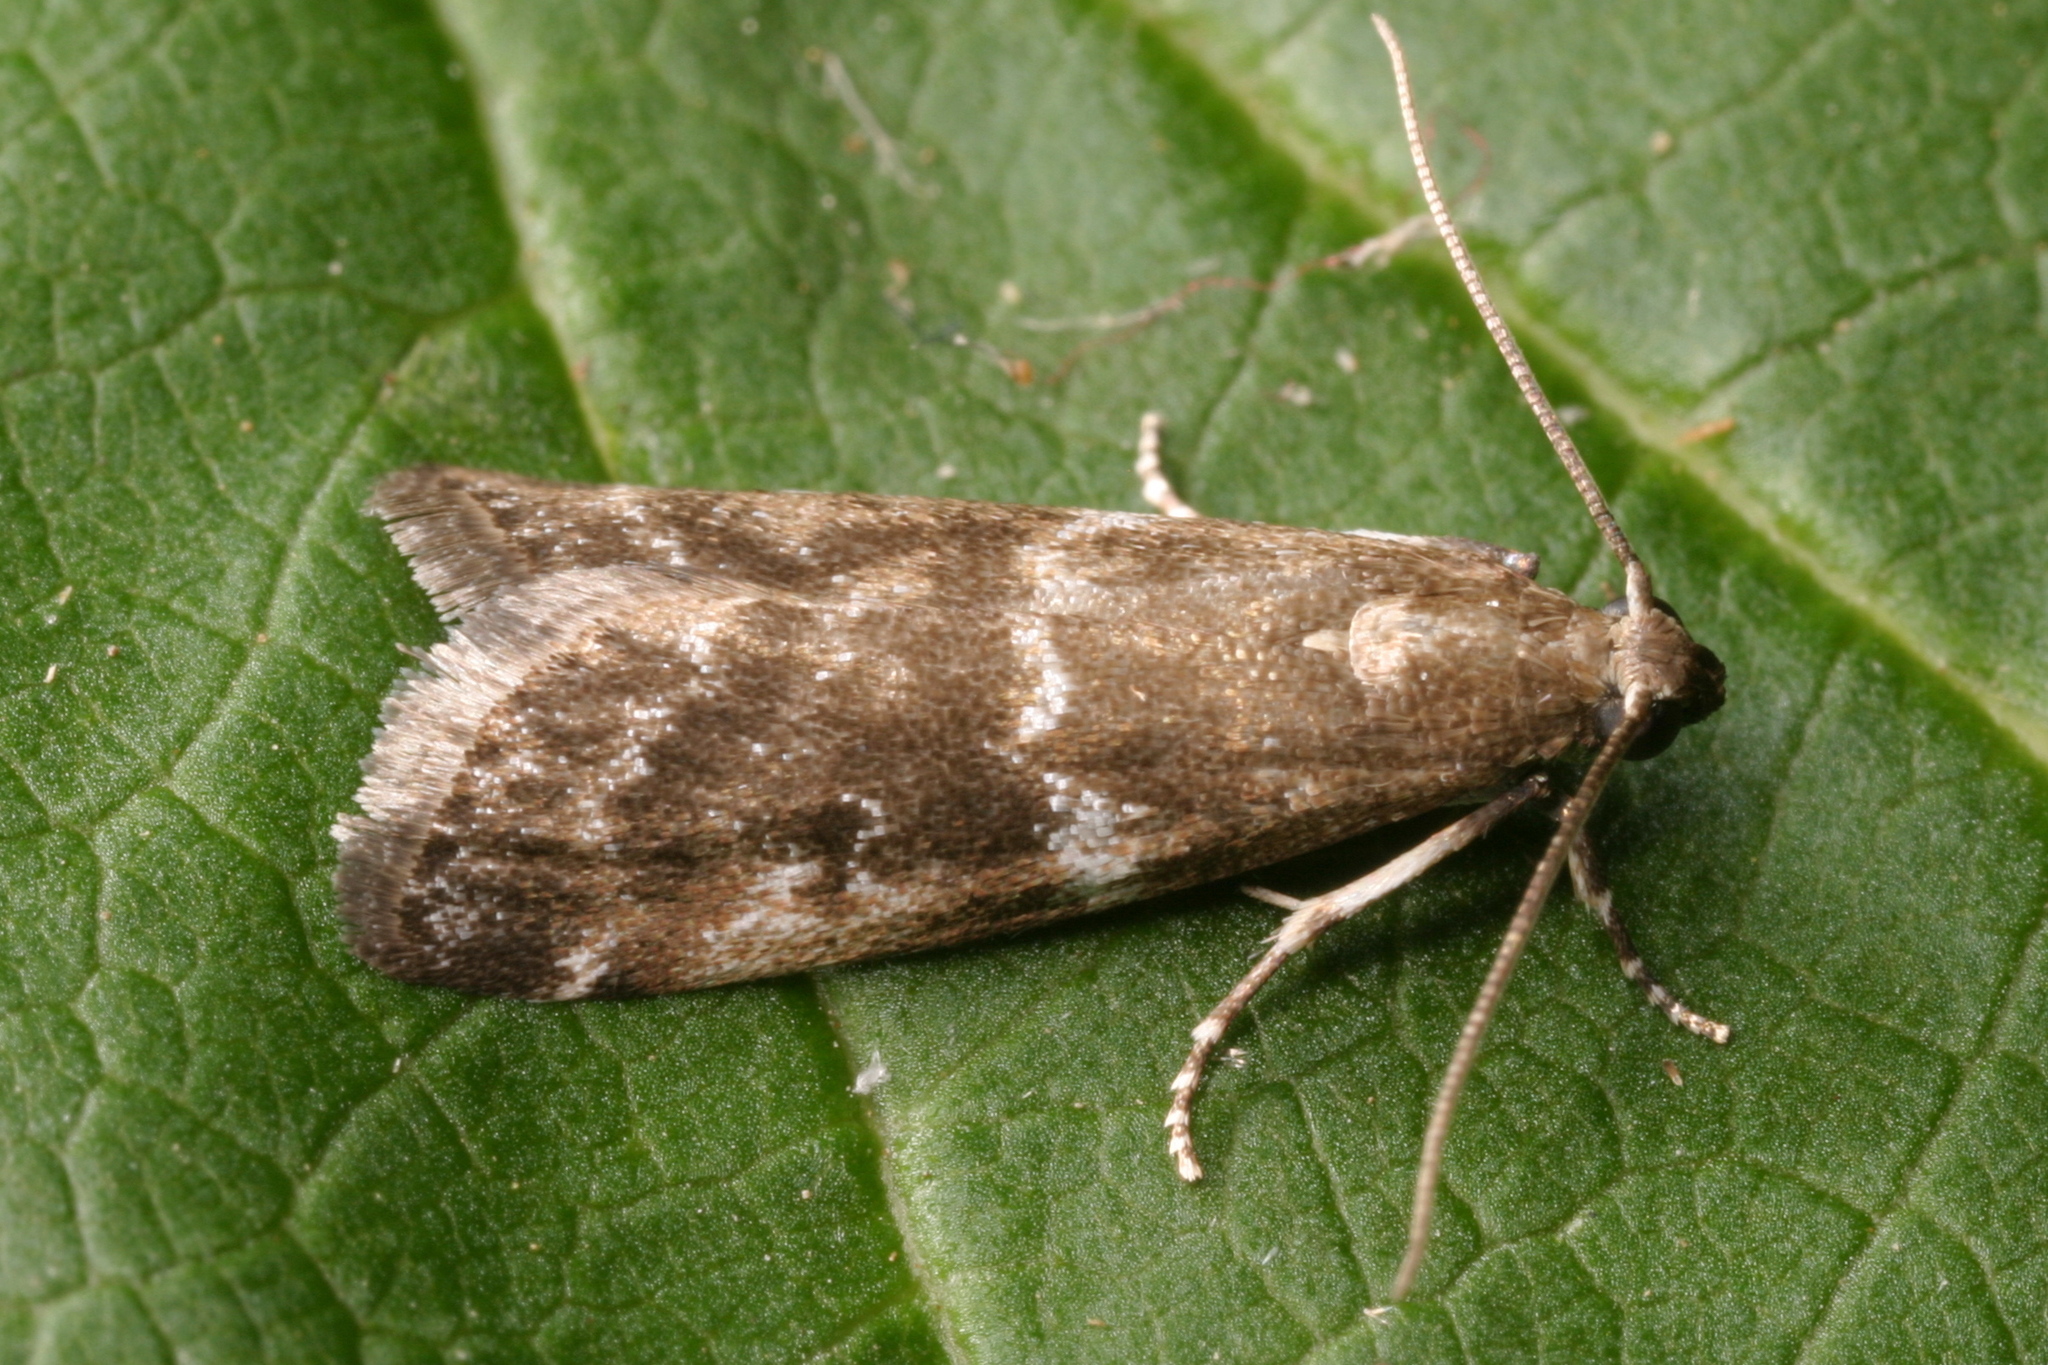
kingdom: Animalia
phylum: Arthropoda
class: Insecta
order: Lepidoptera
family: Pyralidae
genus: Assara
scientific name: Assara terebrella
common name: Dark spruce knot-horn
